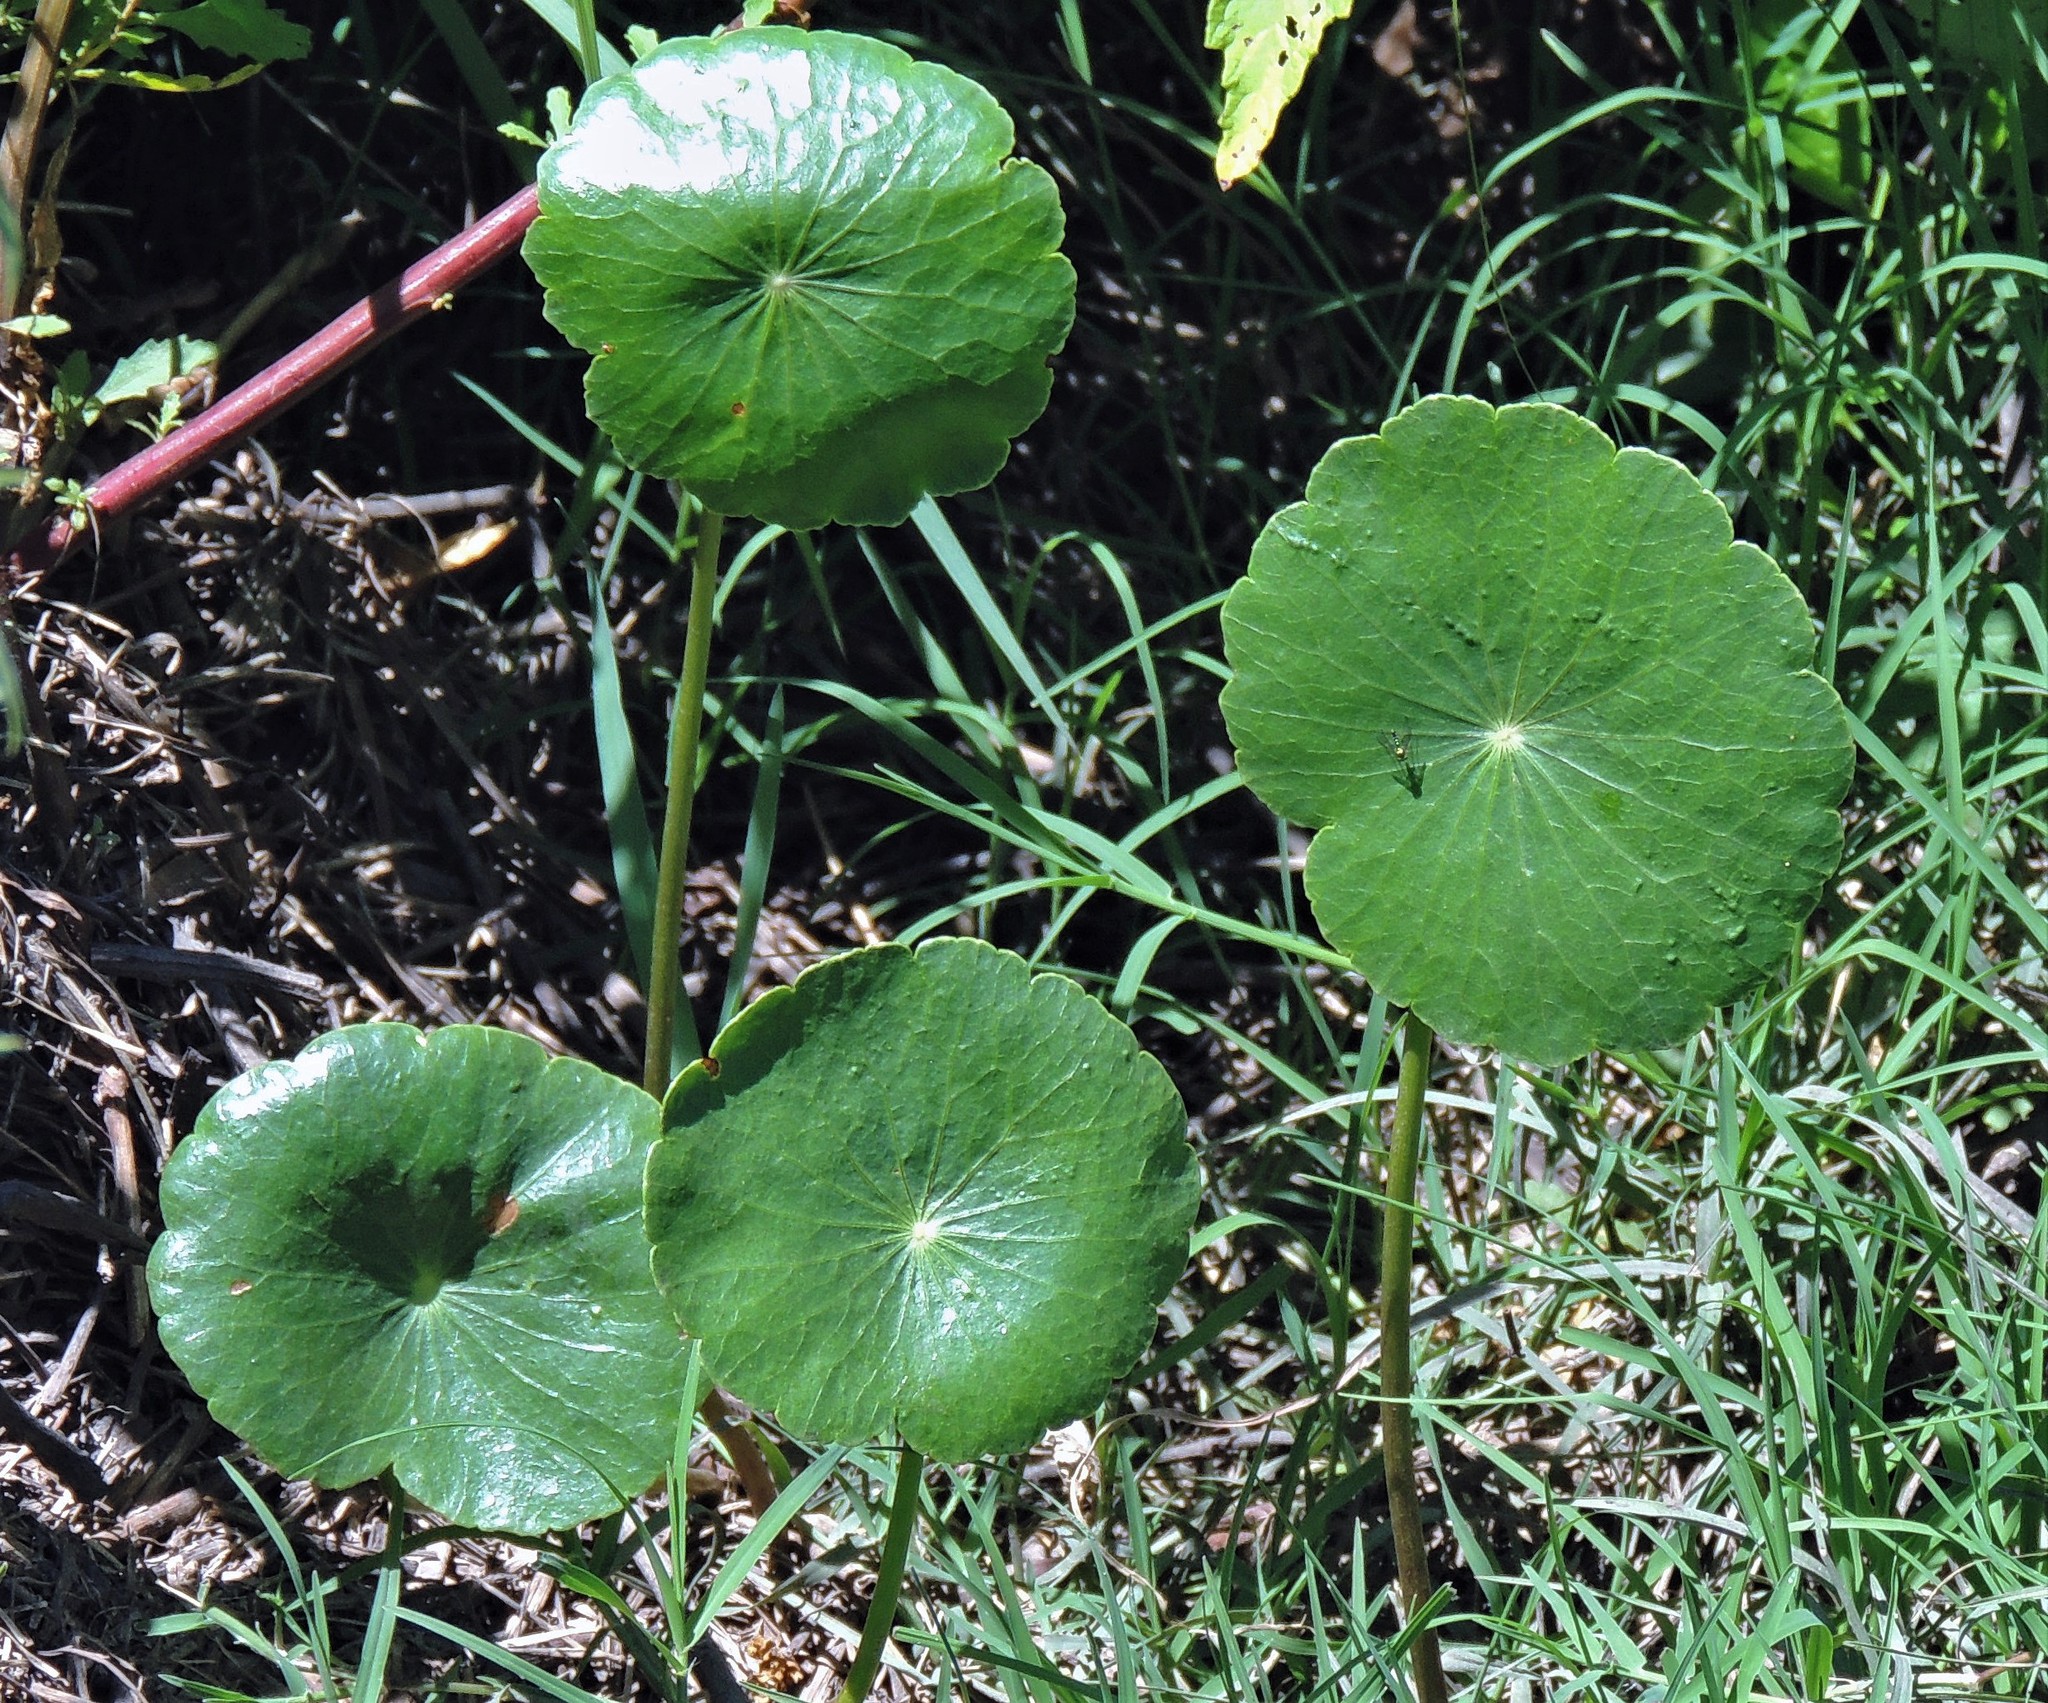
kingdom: Plantae
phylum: Tracheophyta
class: Magnoliopsida
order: Apiales
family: Araliaceae
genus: Hydrocotyle
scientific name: Hydrocotyle bonariensis
